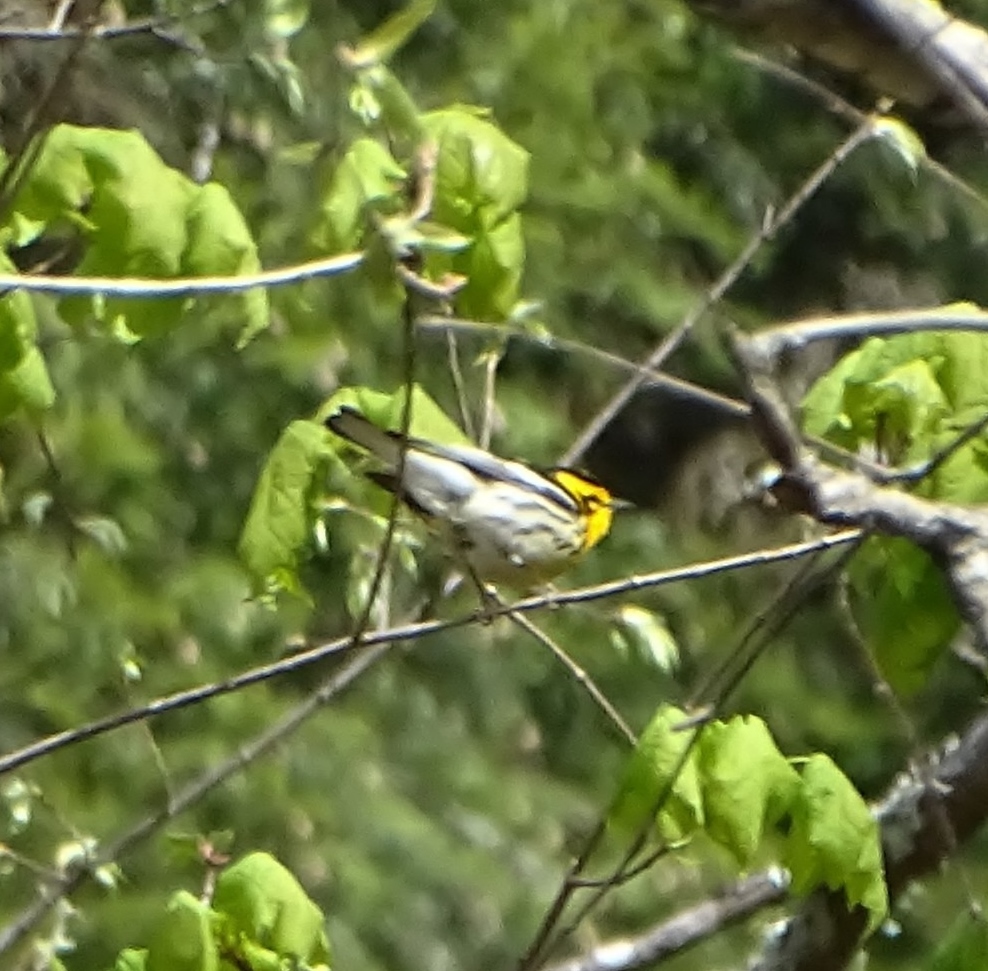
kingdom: Animalia
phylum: Chordata
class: Aves
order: Passeriformes
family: Parulidae
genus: Setophaga
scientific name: Setophaga fusca
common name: Blackburnian warbler
